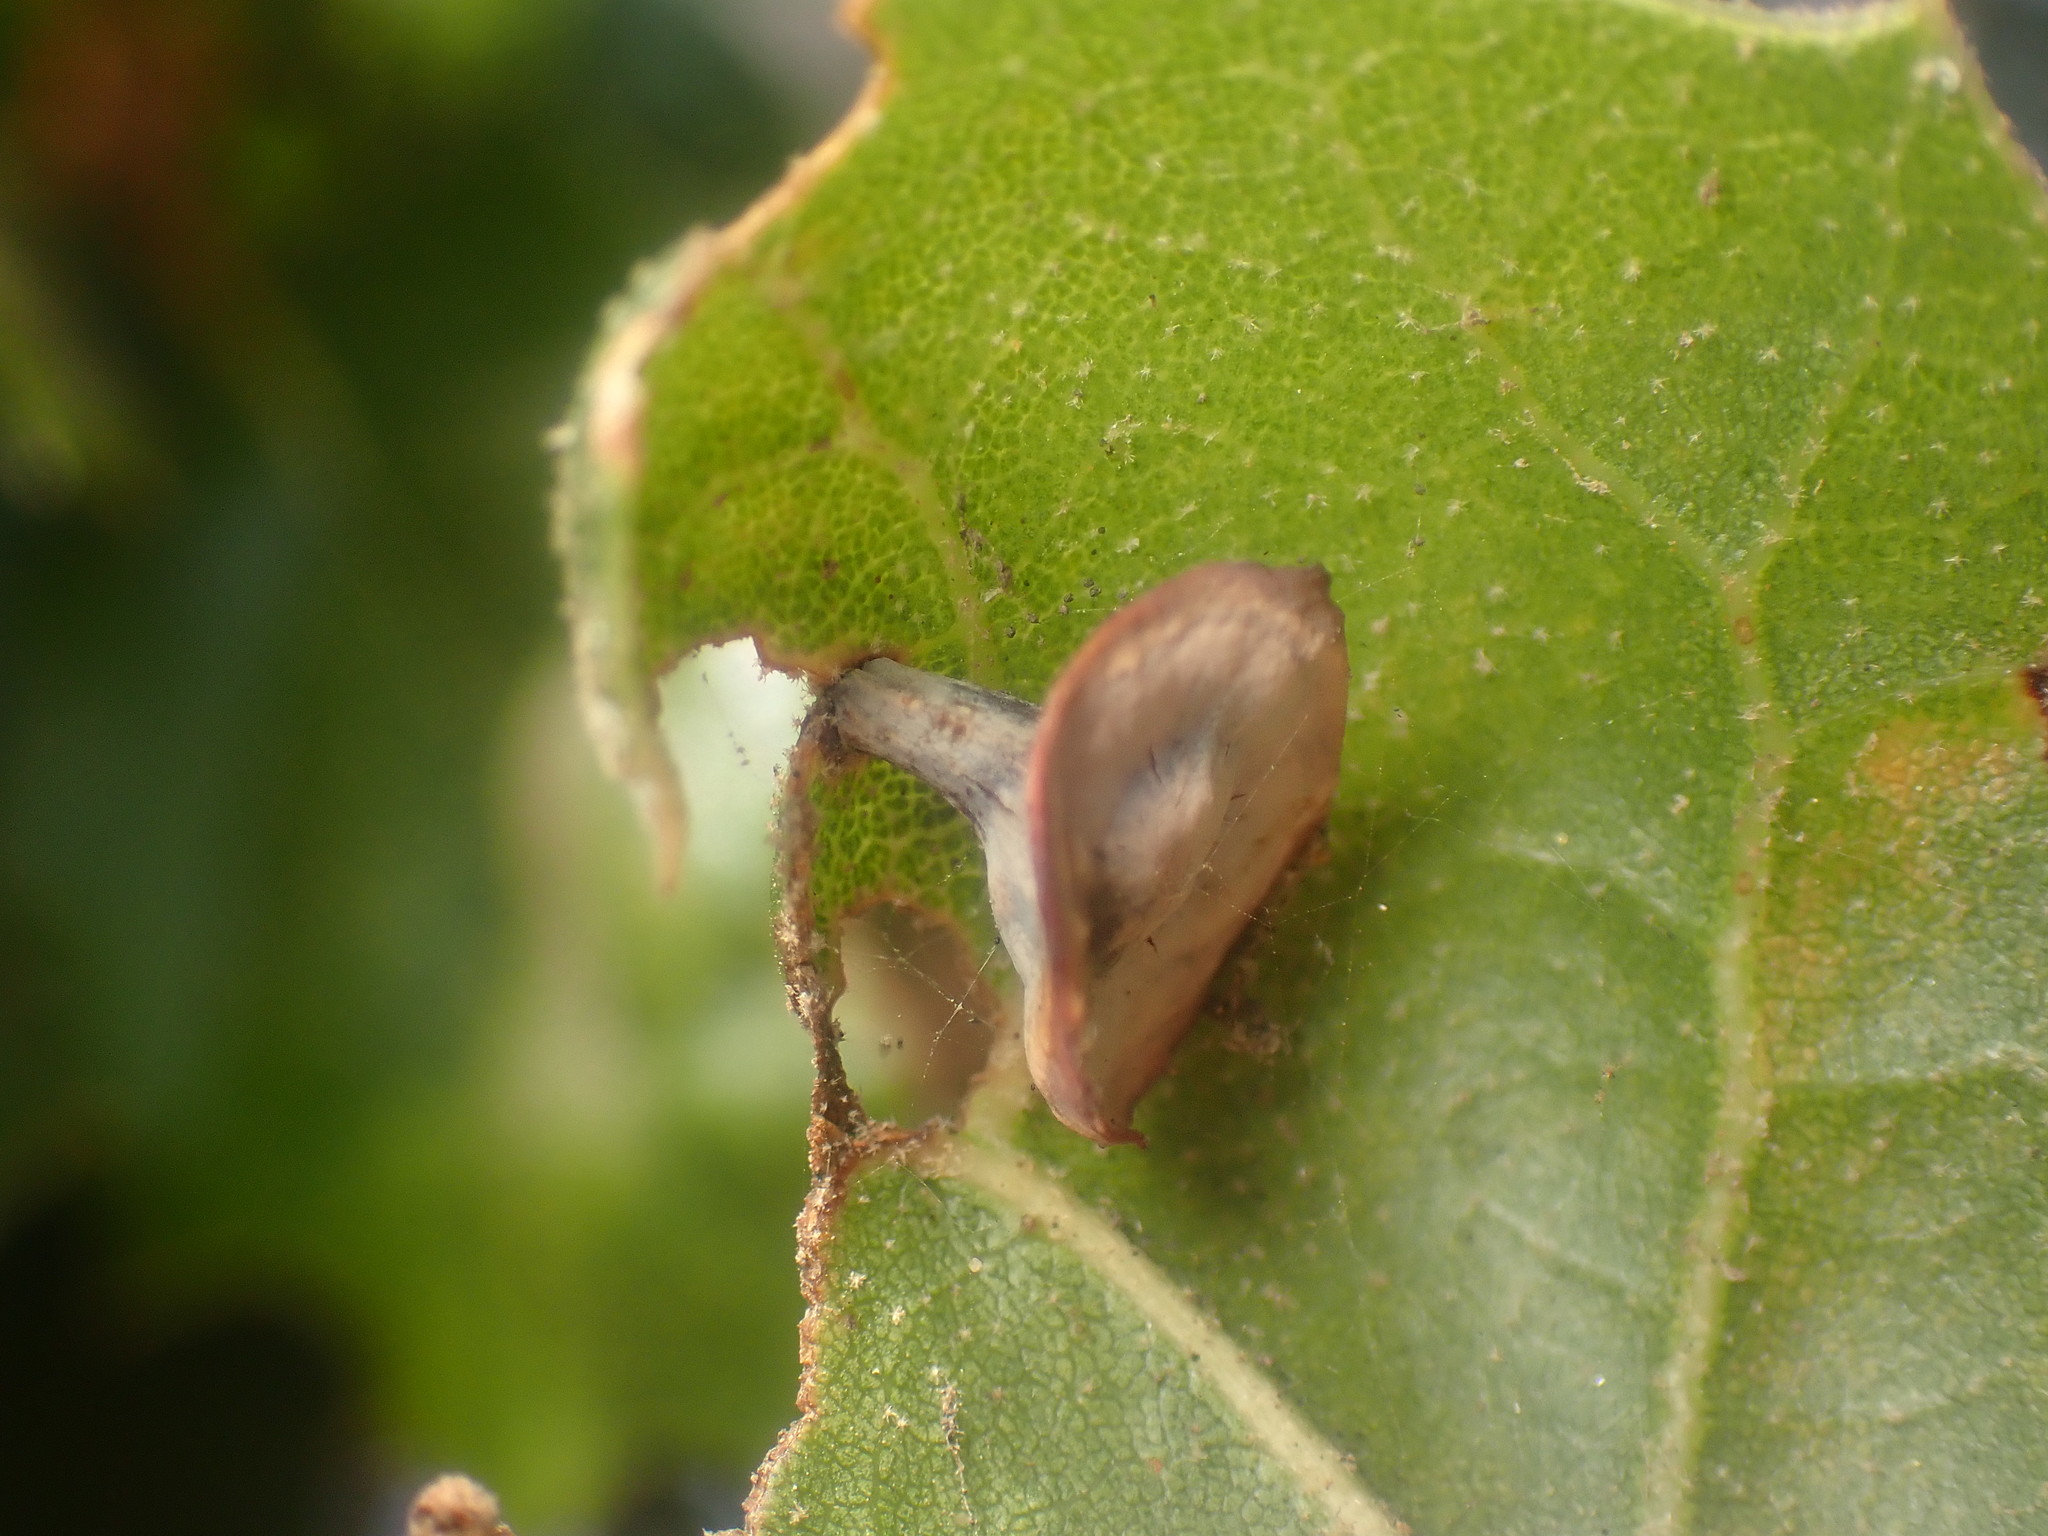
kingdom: Animalia
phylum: Arthropoda
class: Insecta
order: Hymenoptera
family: Cynipidae
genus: Amphibolips
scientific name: Amphibolips quercuspomiformis
